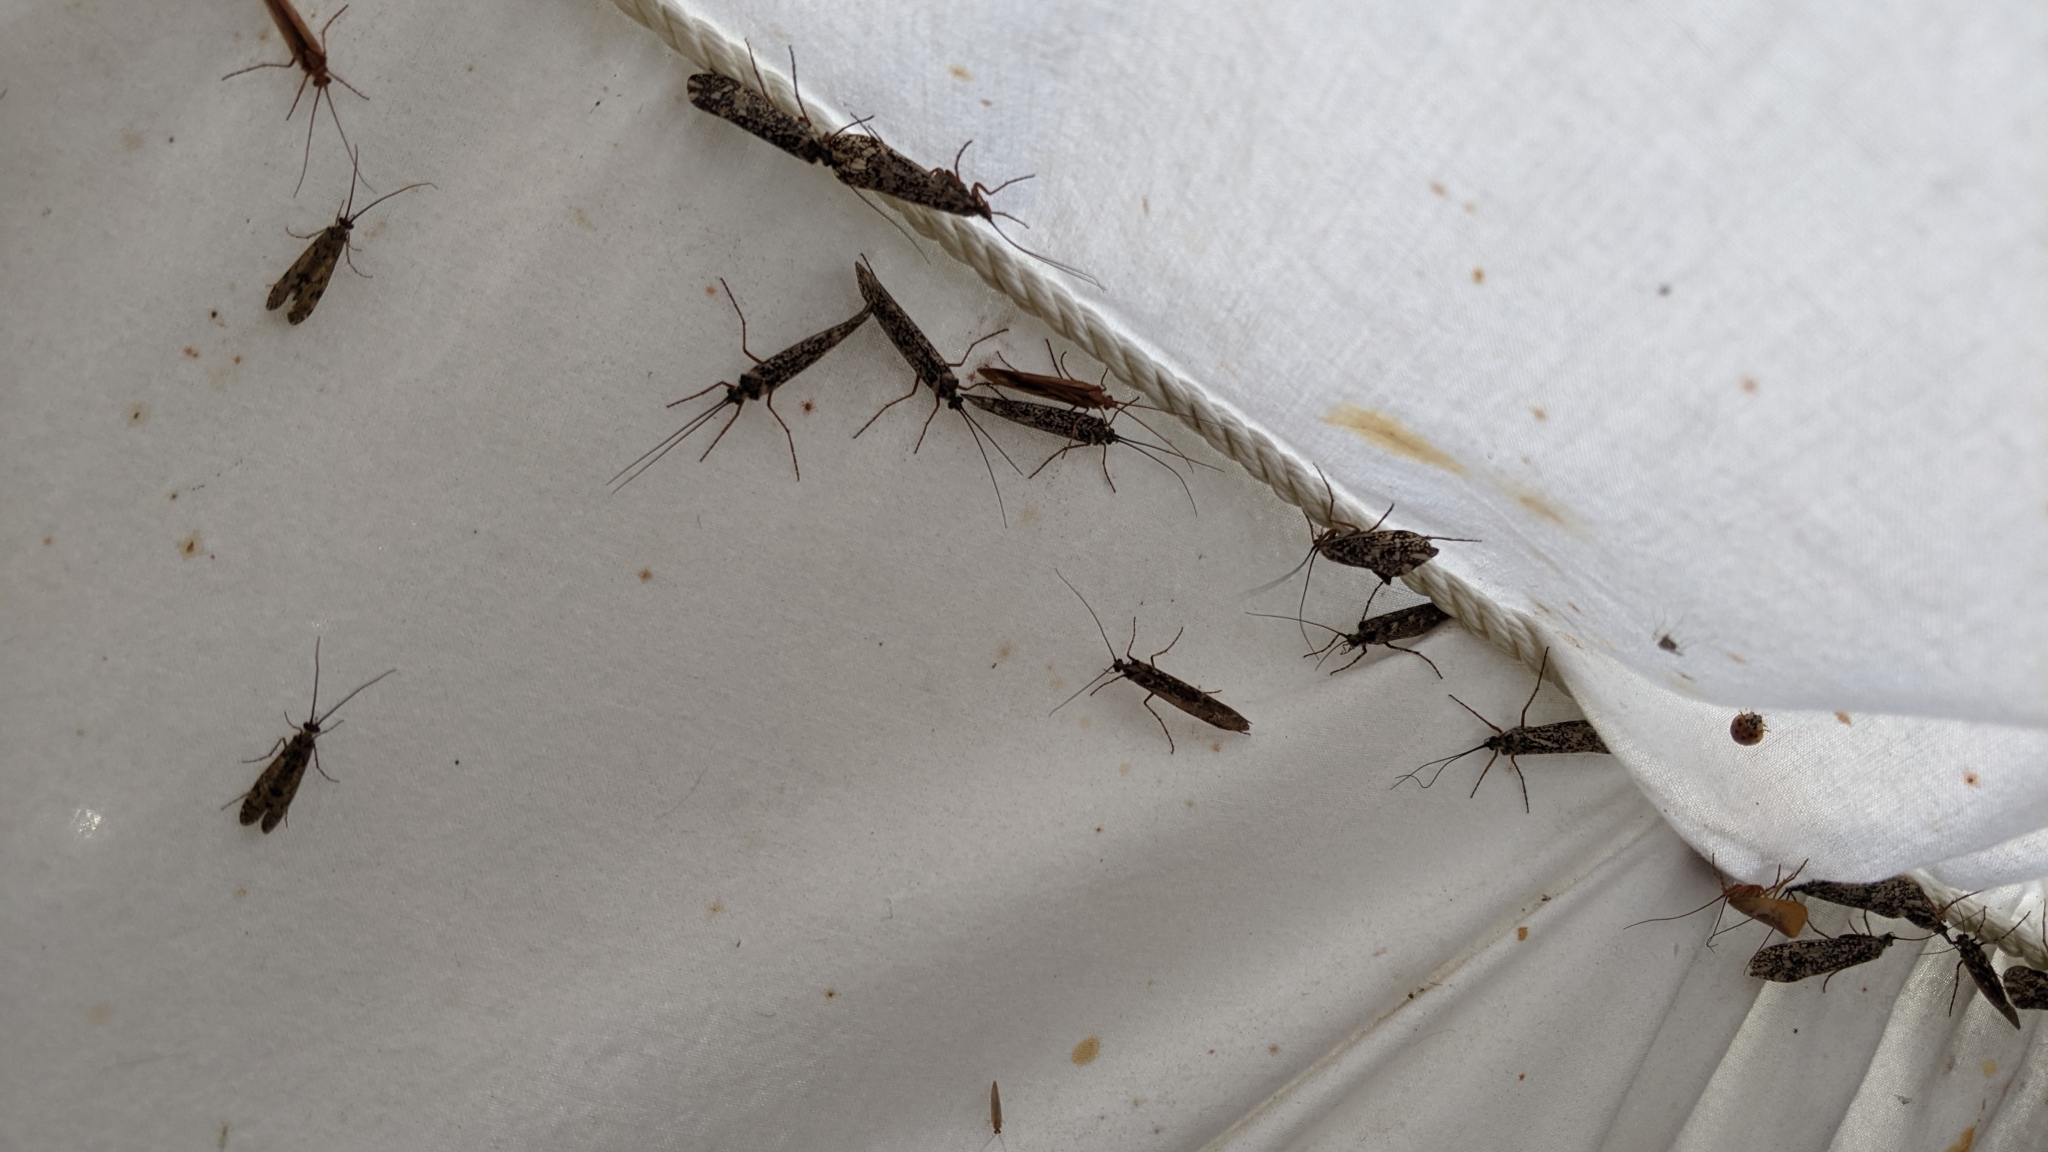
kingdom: Animalia
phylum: Arthropoda
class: Insecta
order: Trichoptera
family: Limnephilidae
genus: Clistoronia
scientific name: Clistoronia magnifica
